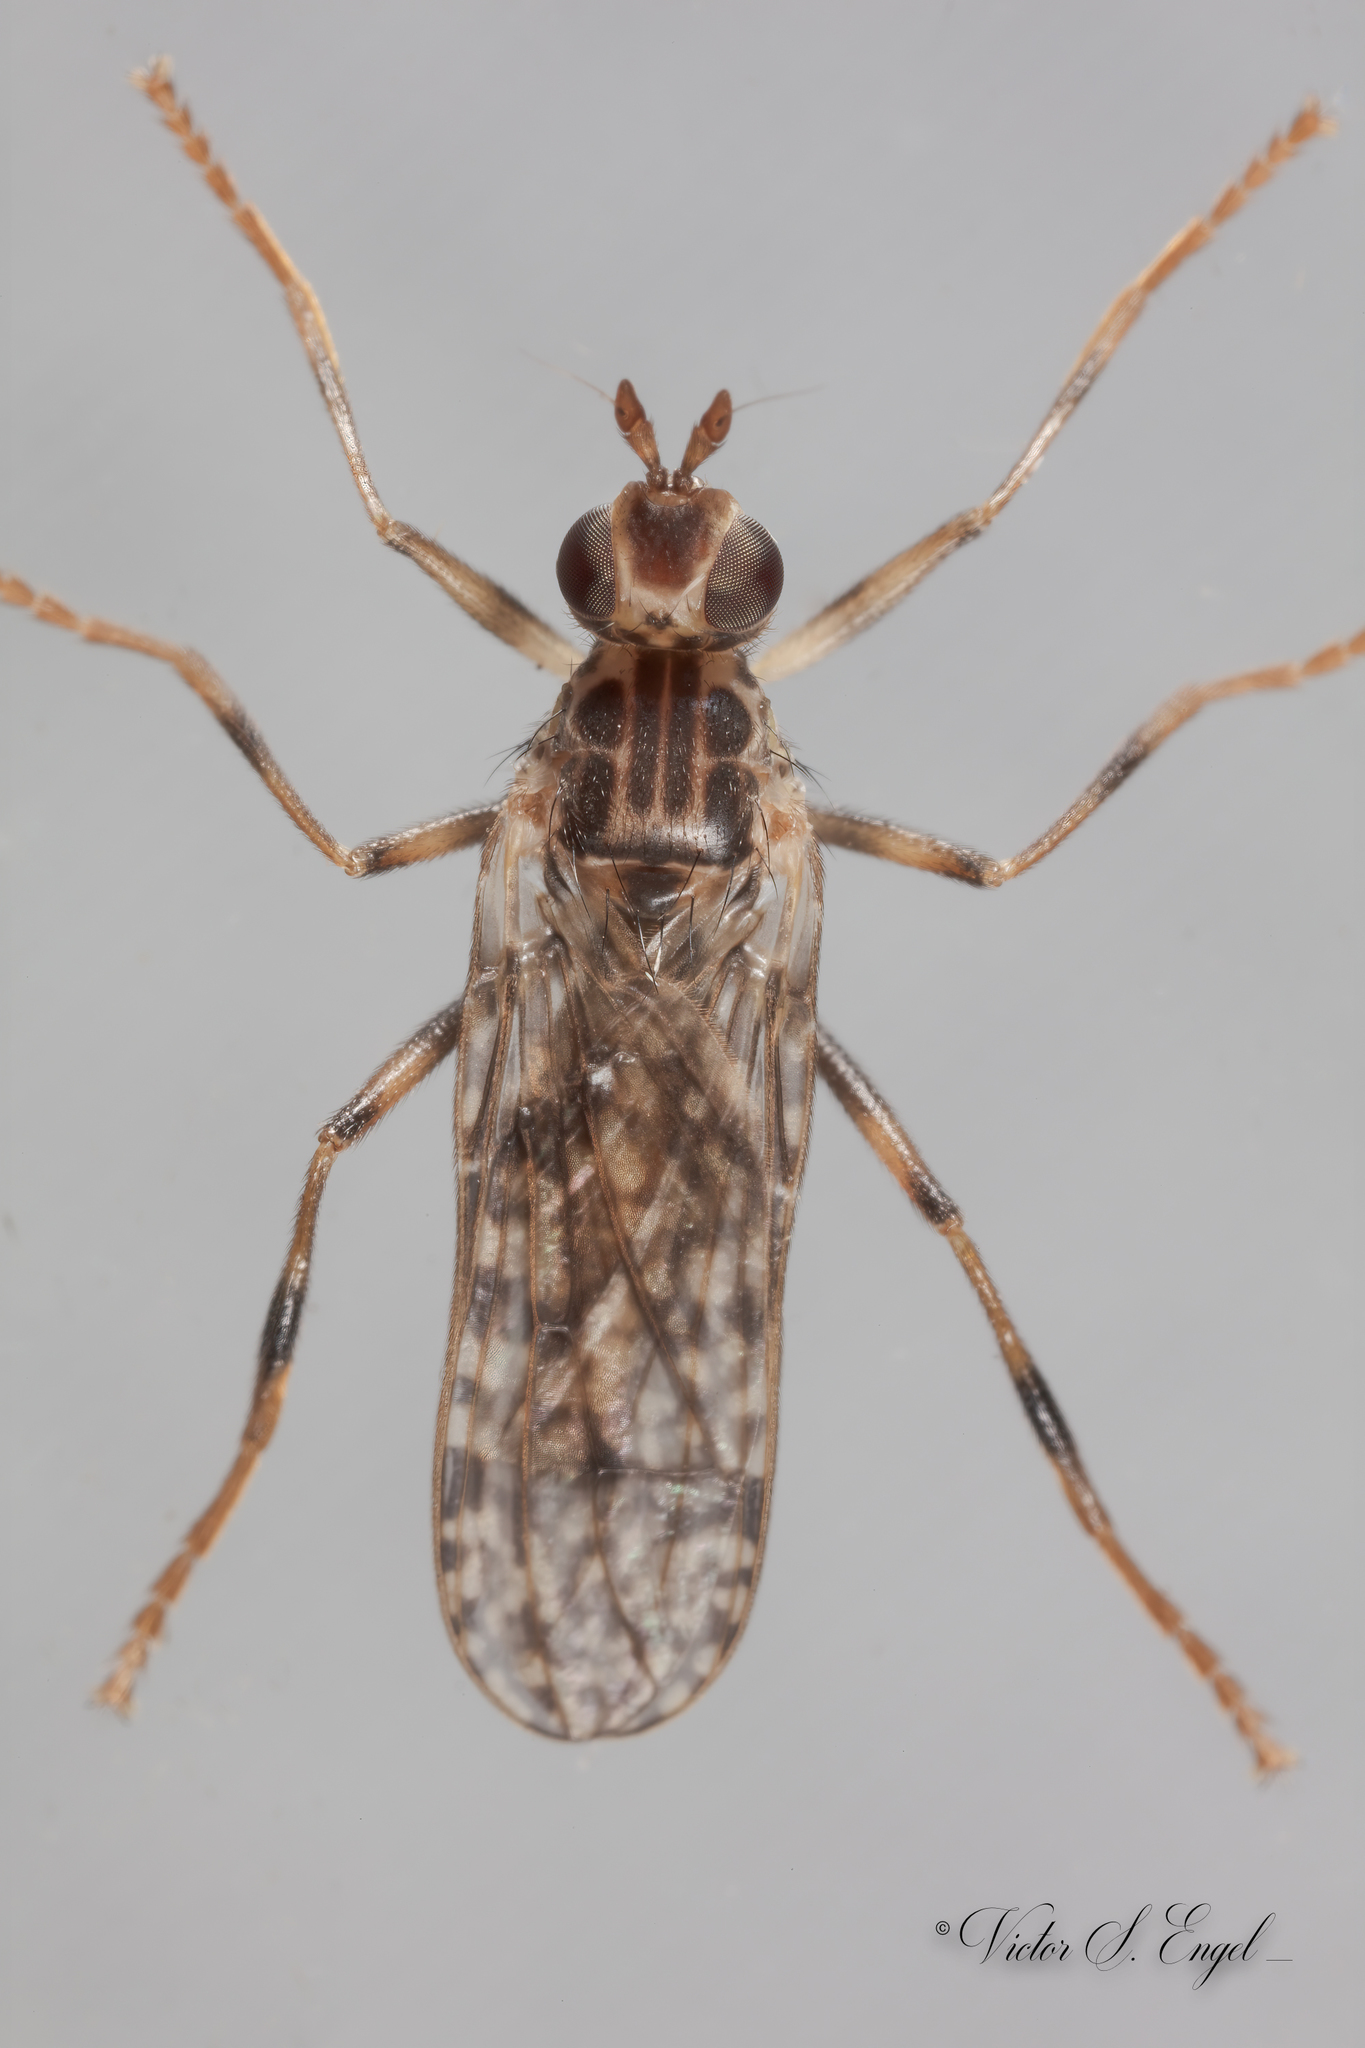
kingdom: Animalia
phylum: Arthropoda
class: Insecta
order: Diptera
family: Pyrgotidae
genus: Boreothrinax
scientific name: Boreothrinax
